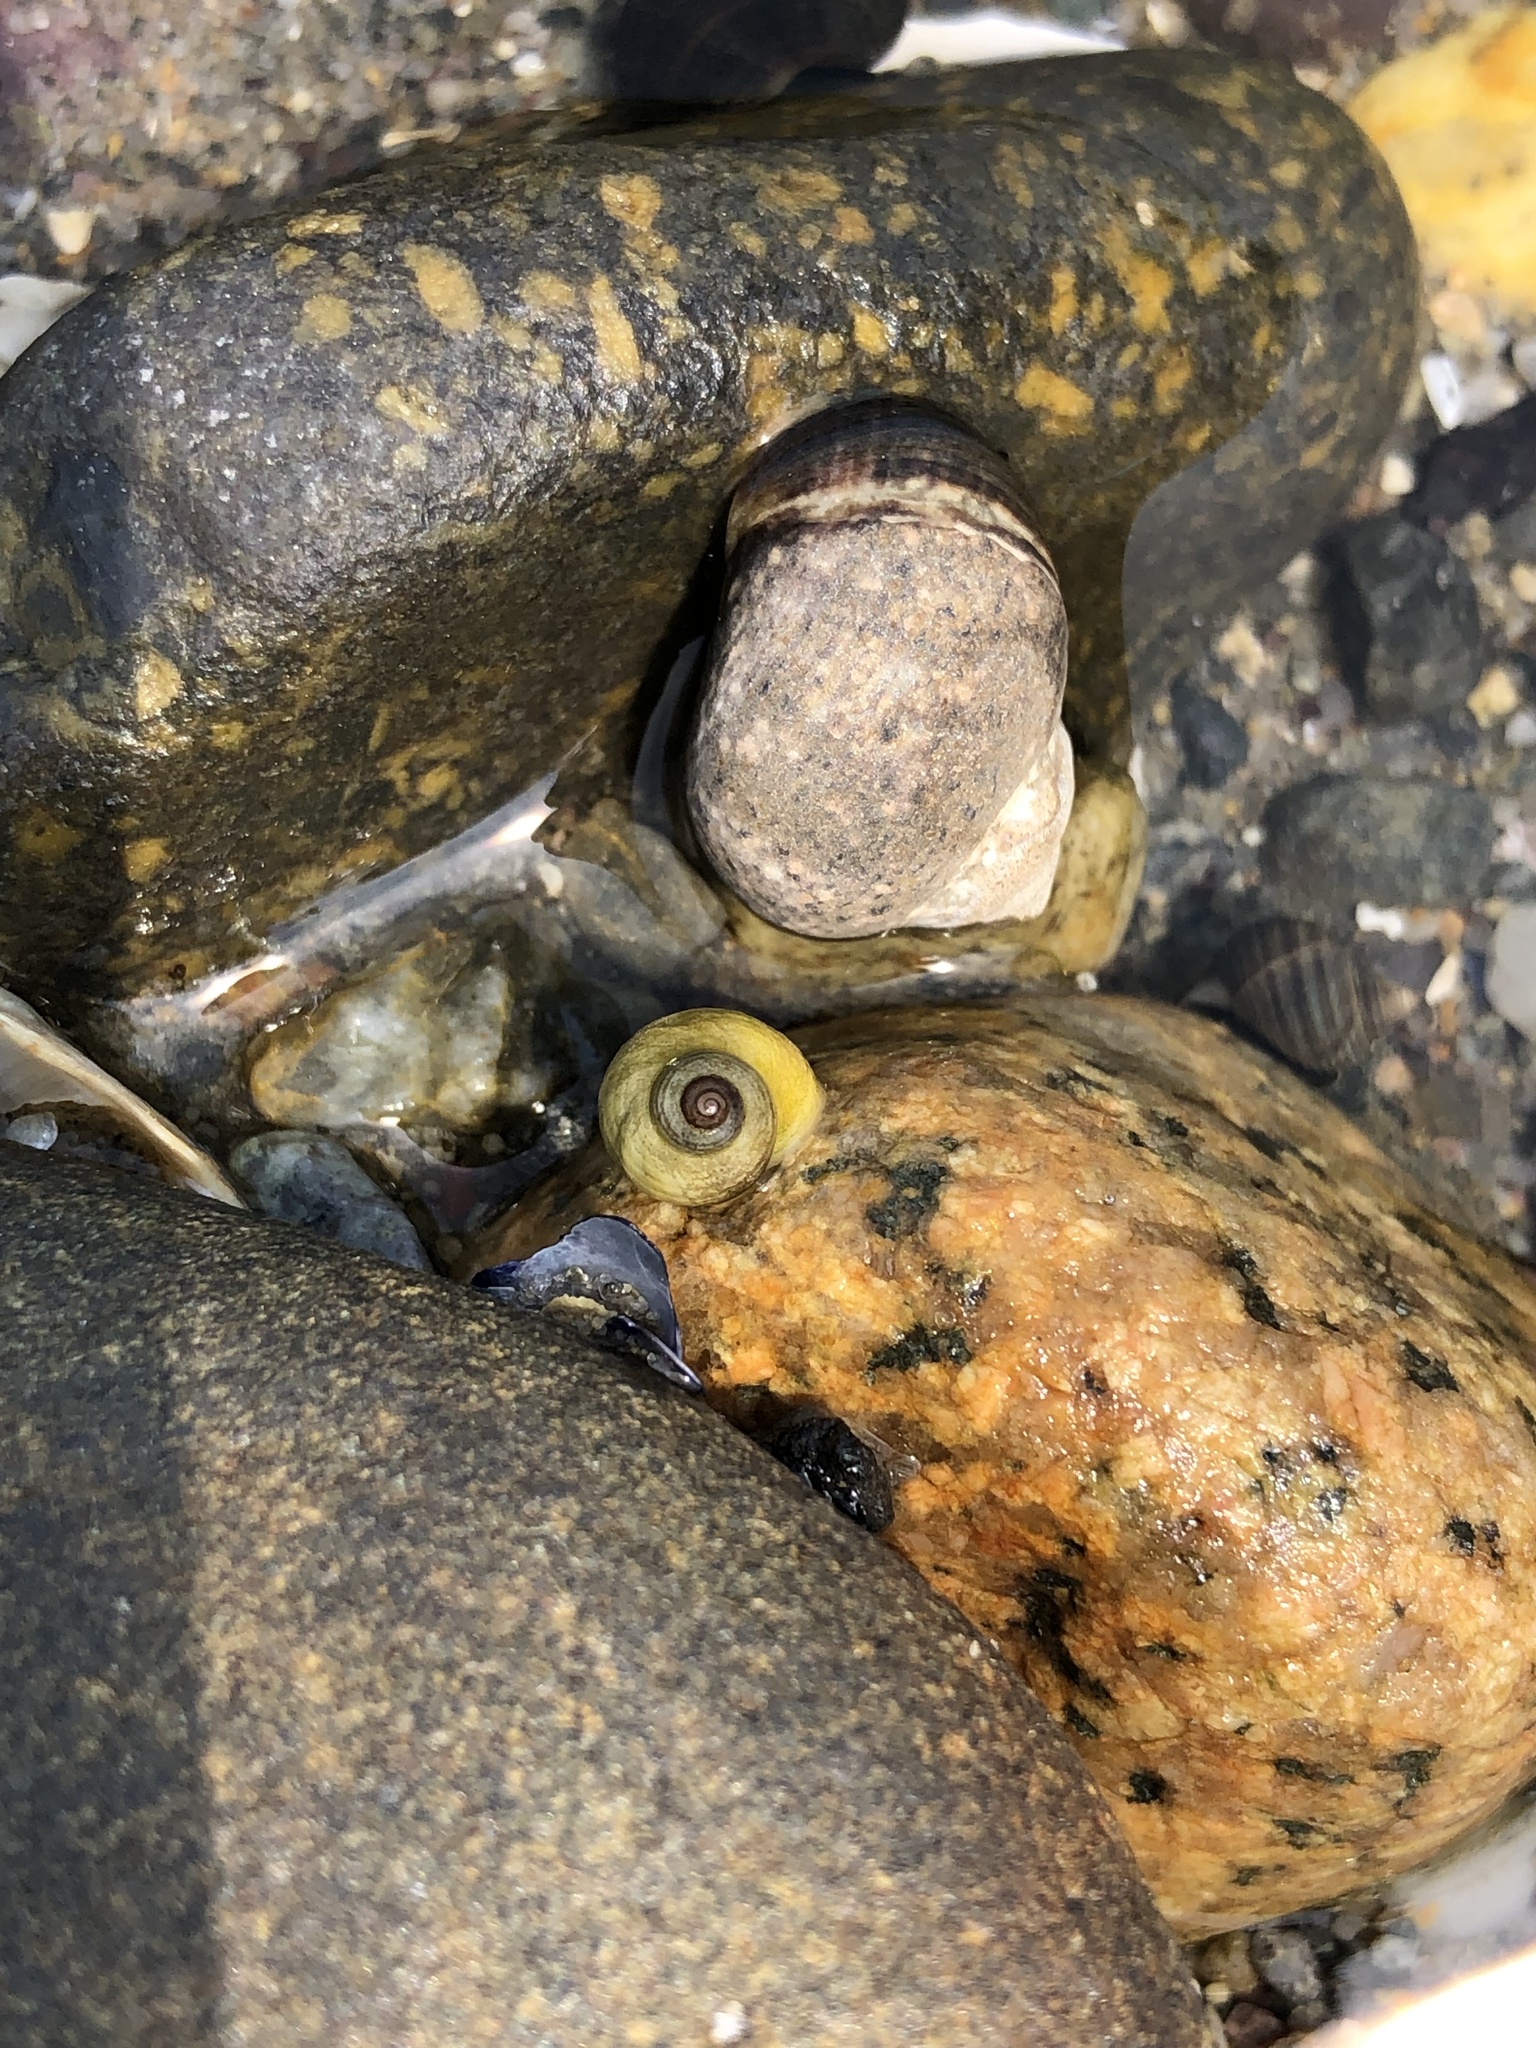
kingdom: Animalia
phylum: Mollusca
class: Gastropoda
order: Littorinimorpha
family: Littorinidae
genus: Littorina
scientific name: Littorina saxatilis
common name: Black-lined periwinkle
